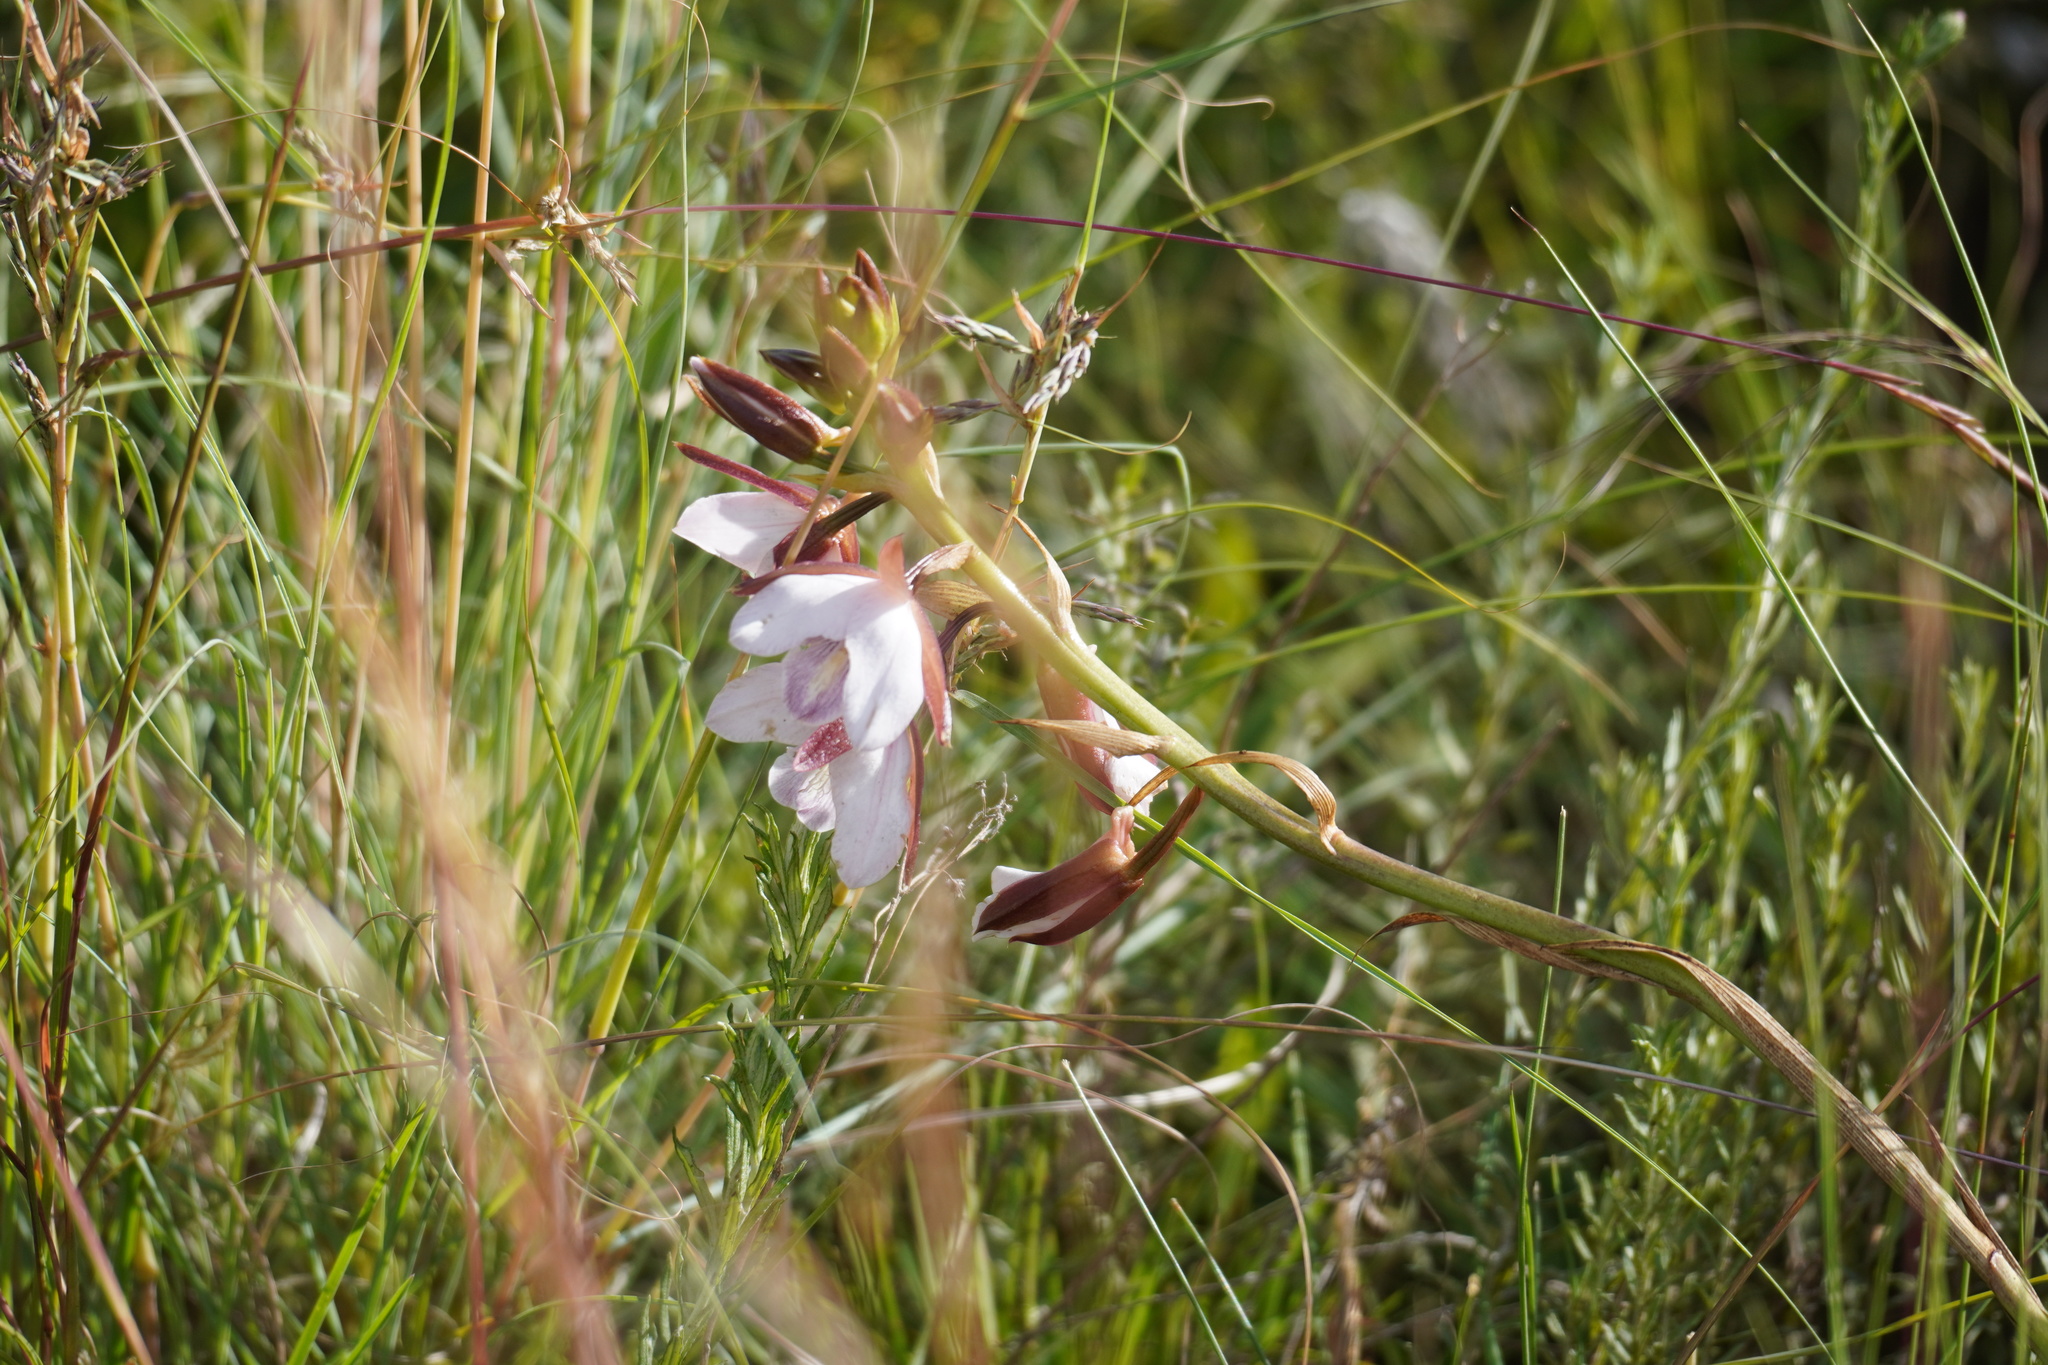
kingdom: Plantae
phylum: Tracheophyta
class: Liliopsida
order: Asparagales
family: Orchidaceae
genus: Eulophia
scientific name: Eulophia ovalis
